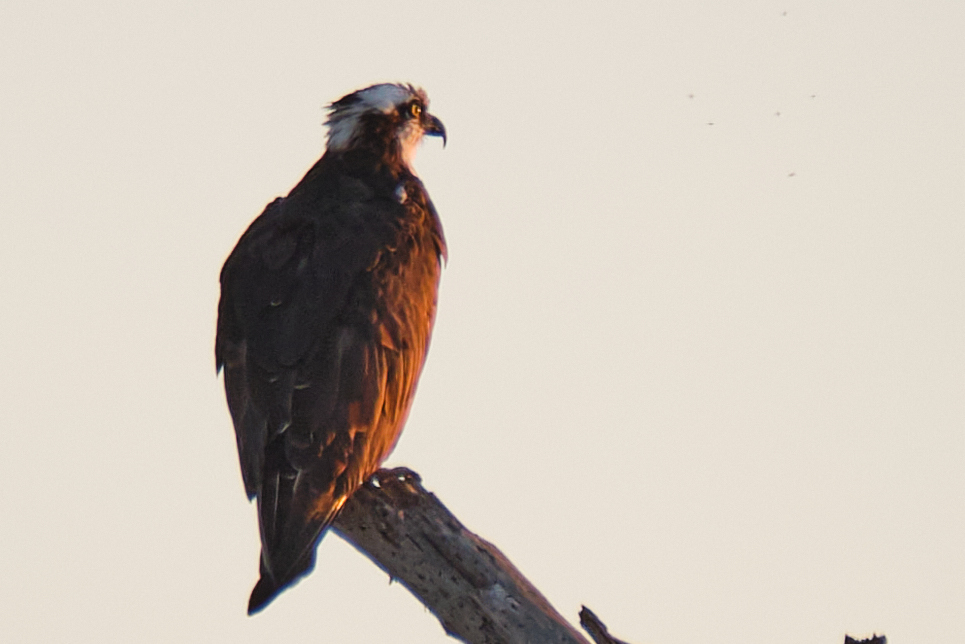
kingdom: Animalia
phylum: Chordata
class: Aves
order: Accipitriformes
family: Pandionidae
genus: Pandion
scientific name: Pandion haliaetus
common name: Osprey
